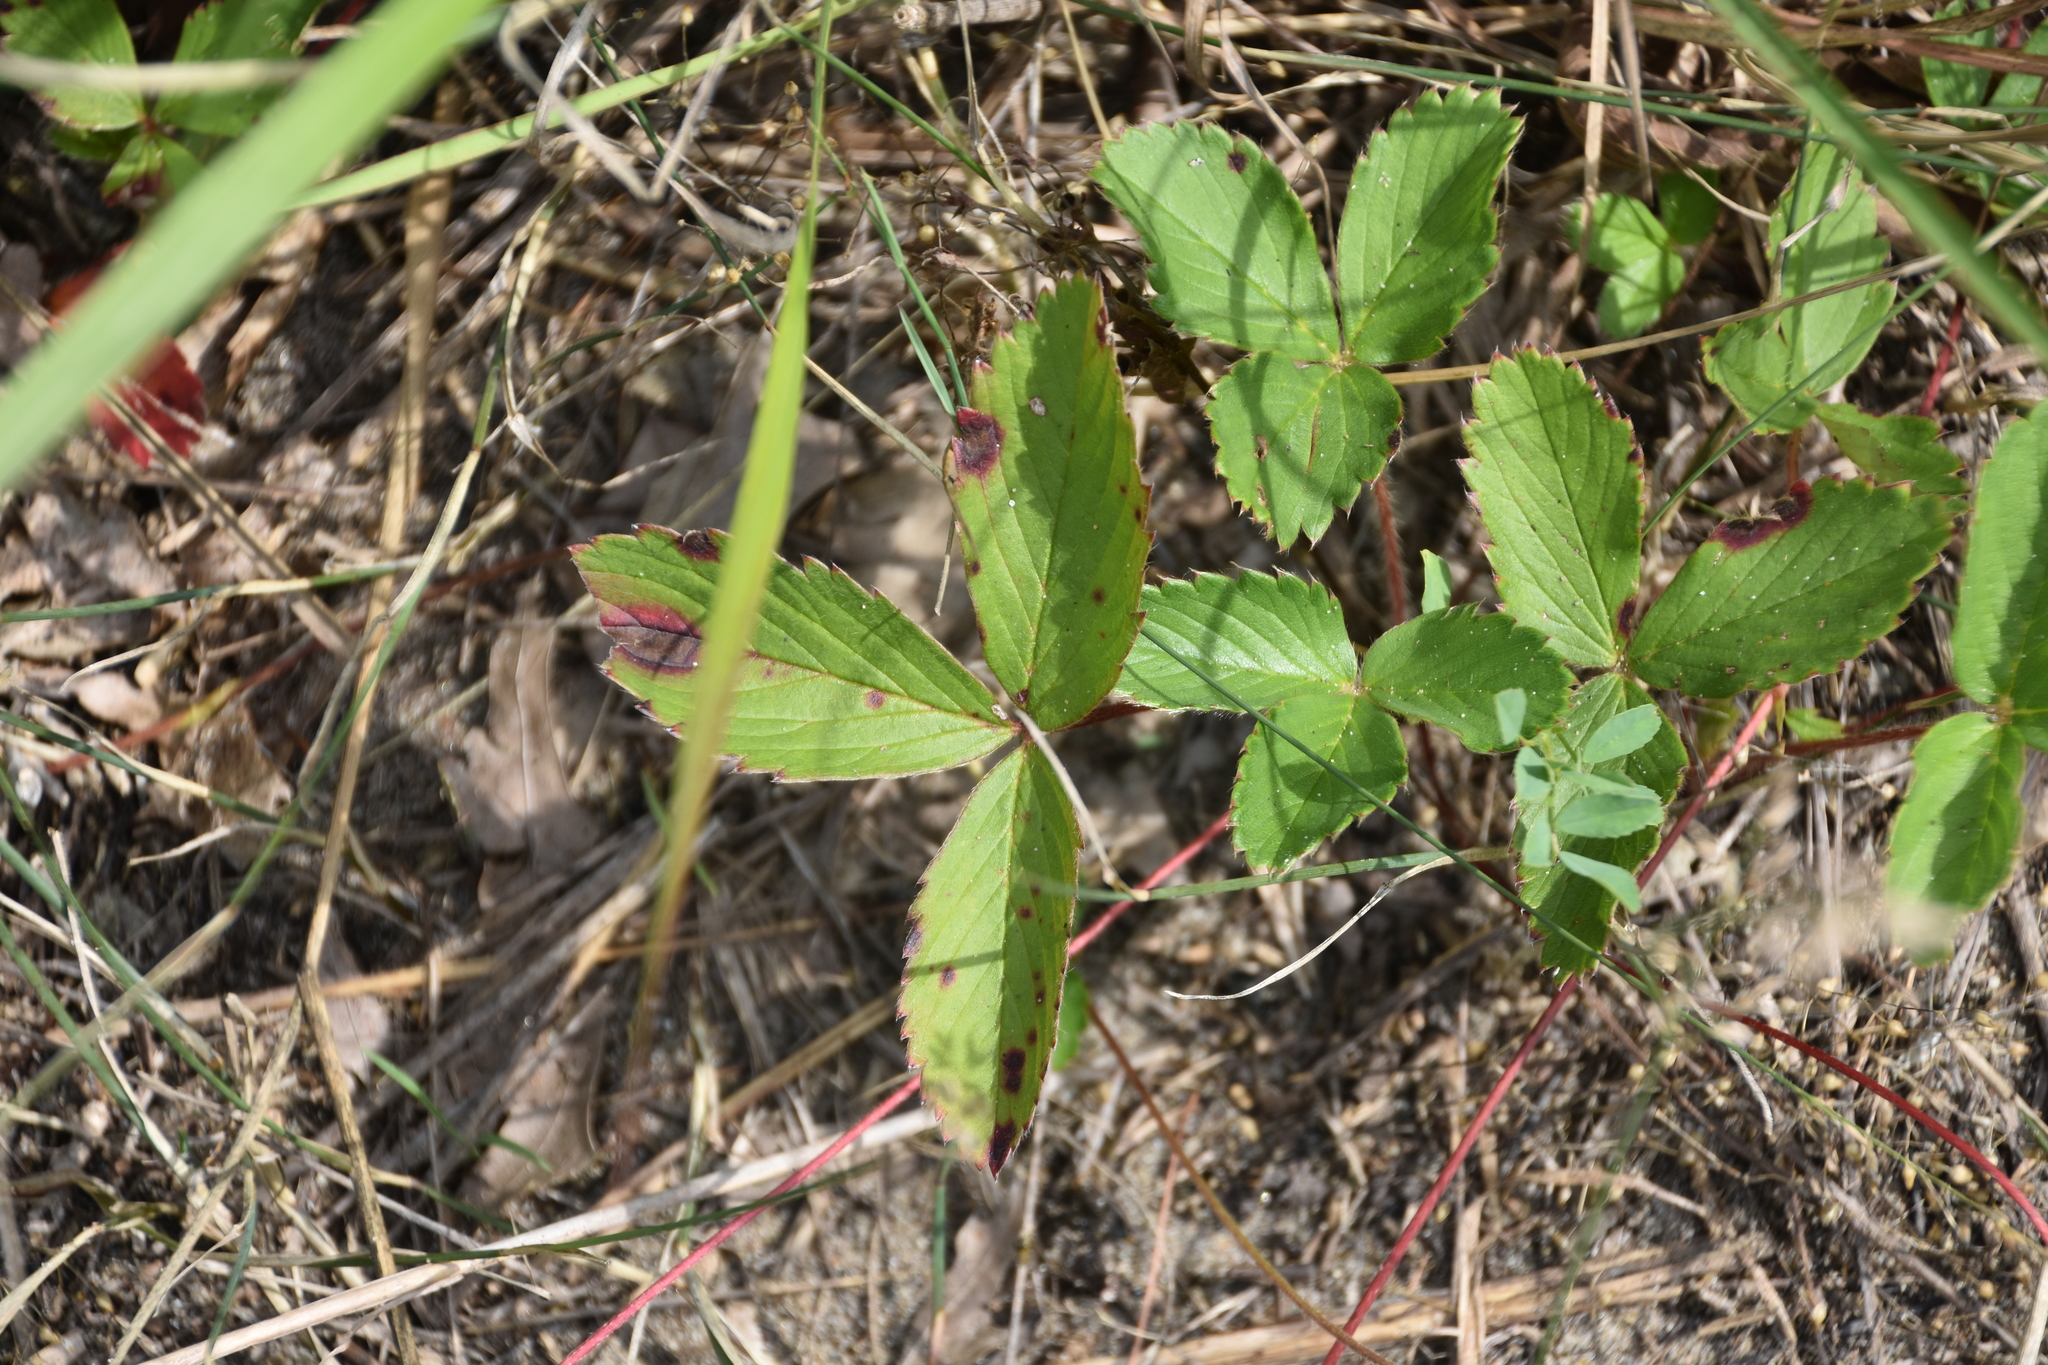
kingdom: Plantae
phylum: Tracheophyta
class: Magnoliopsida
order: Rosales
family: Rosaceae
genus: Fragaria
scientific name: Fragaria vesca
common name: Wild strawberry
